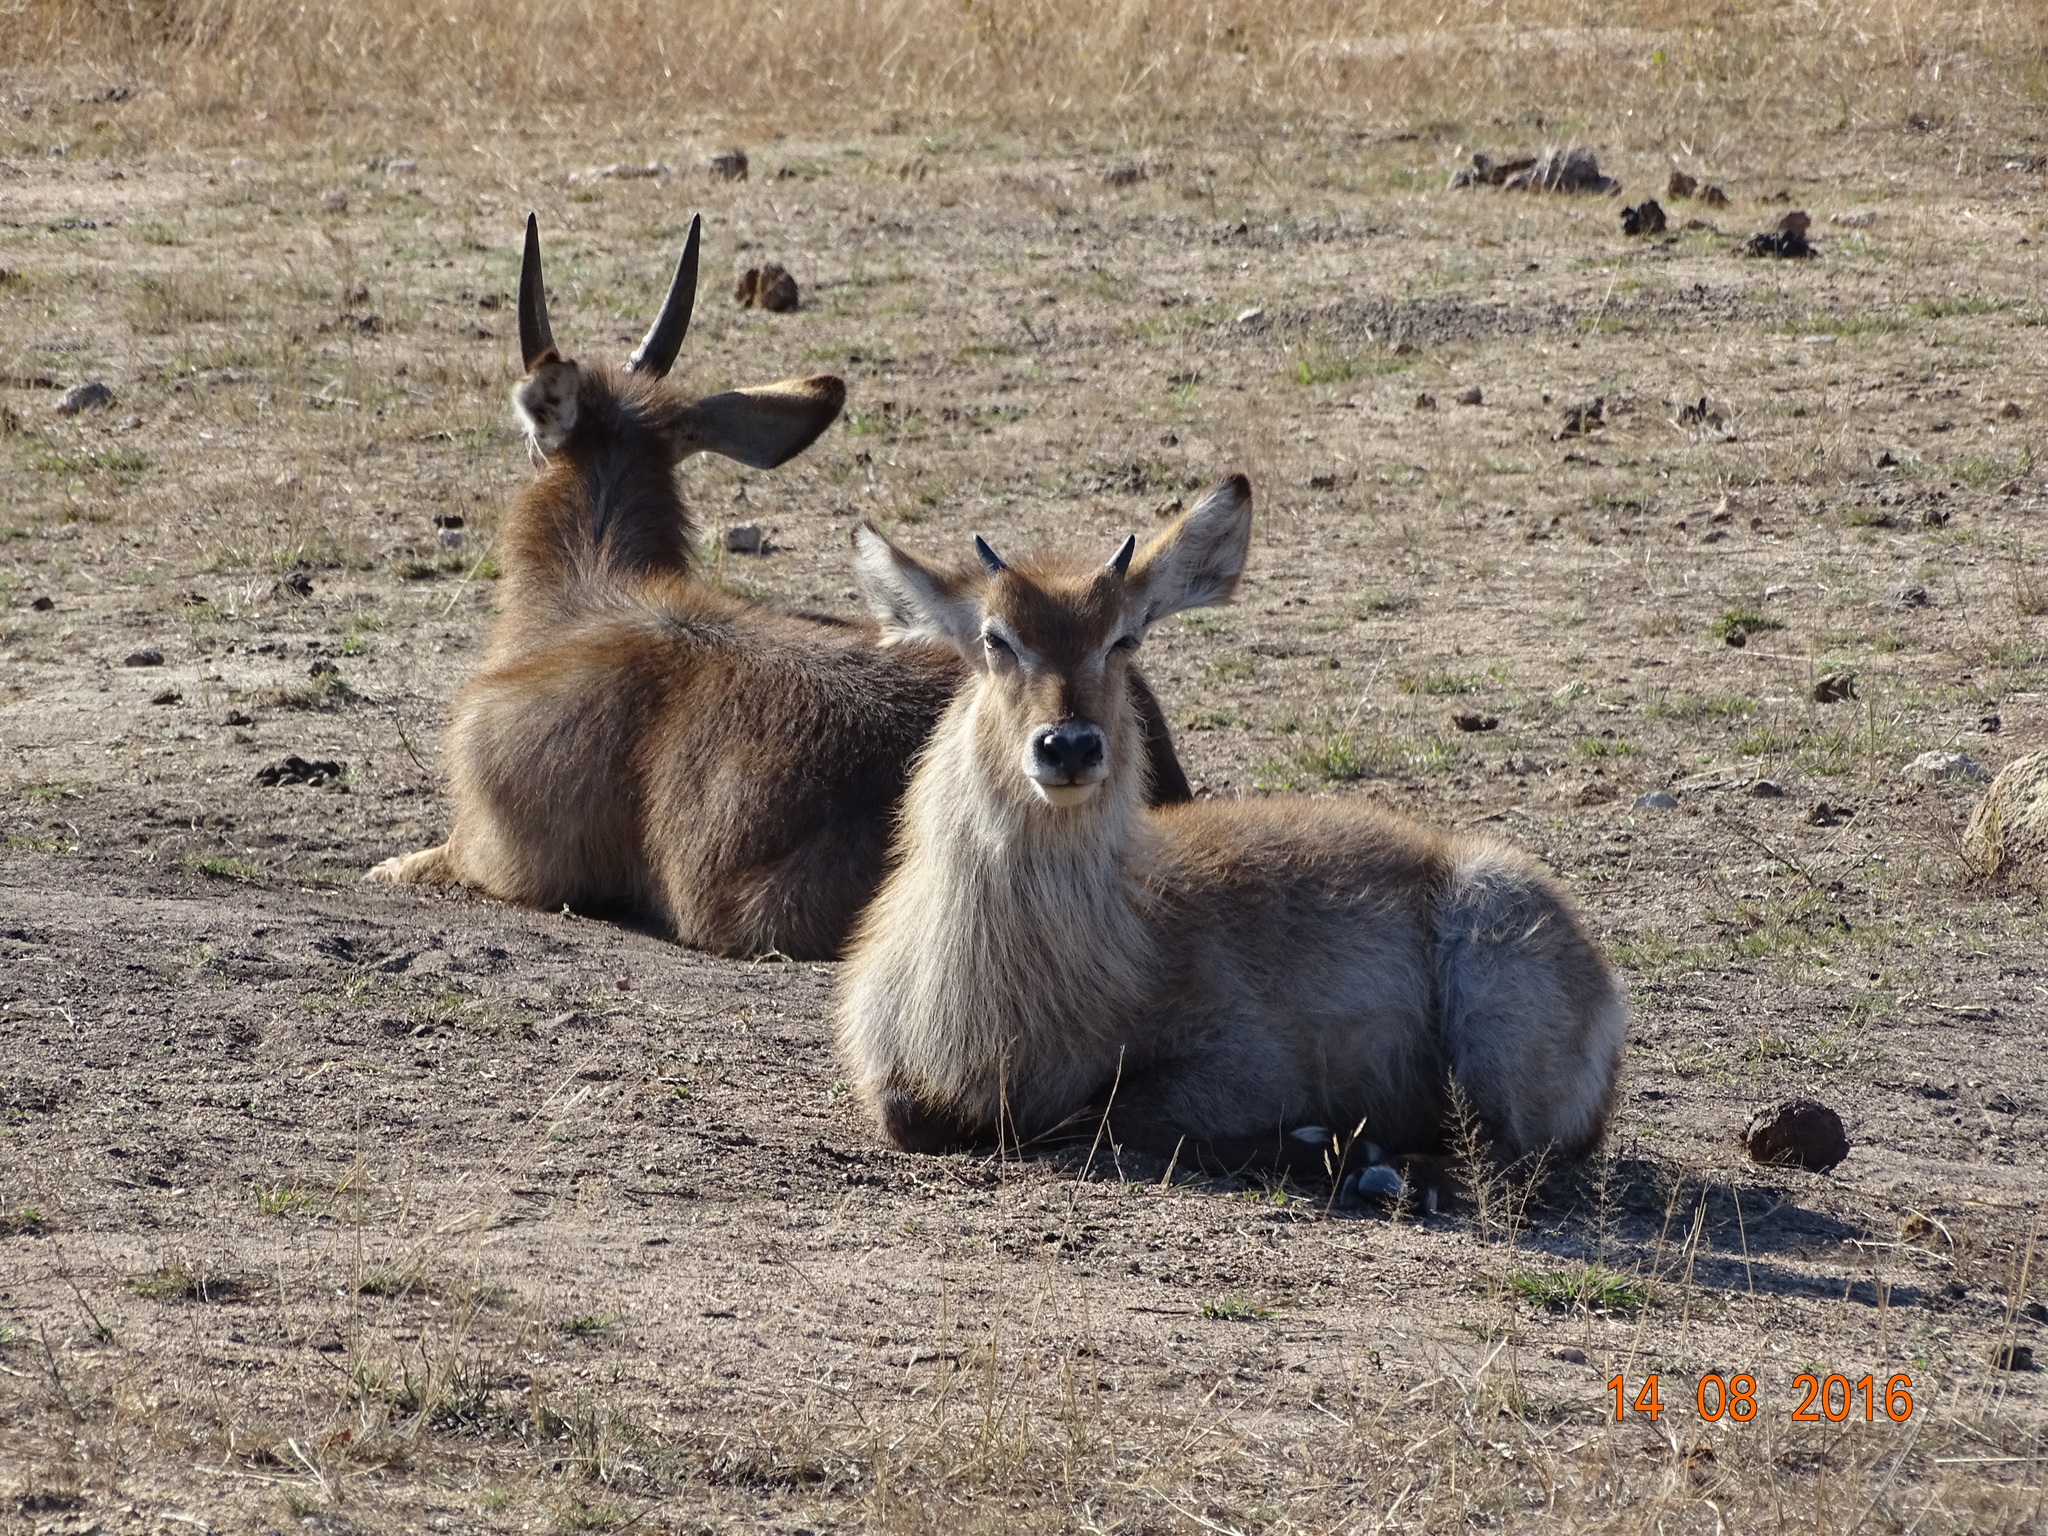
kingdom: Animalia
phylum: Chordata
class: Mammalia
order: Artiodactyla
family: Bovidae
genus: Kobus
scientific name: Kobus ellipsiprymnus
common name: Waterbuck
